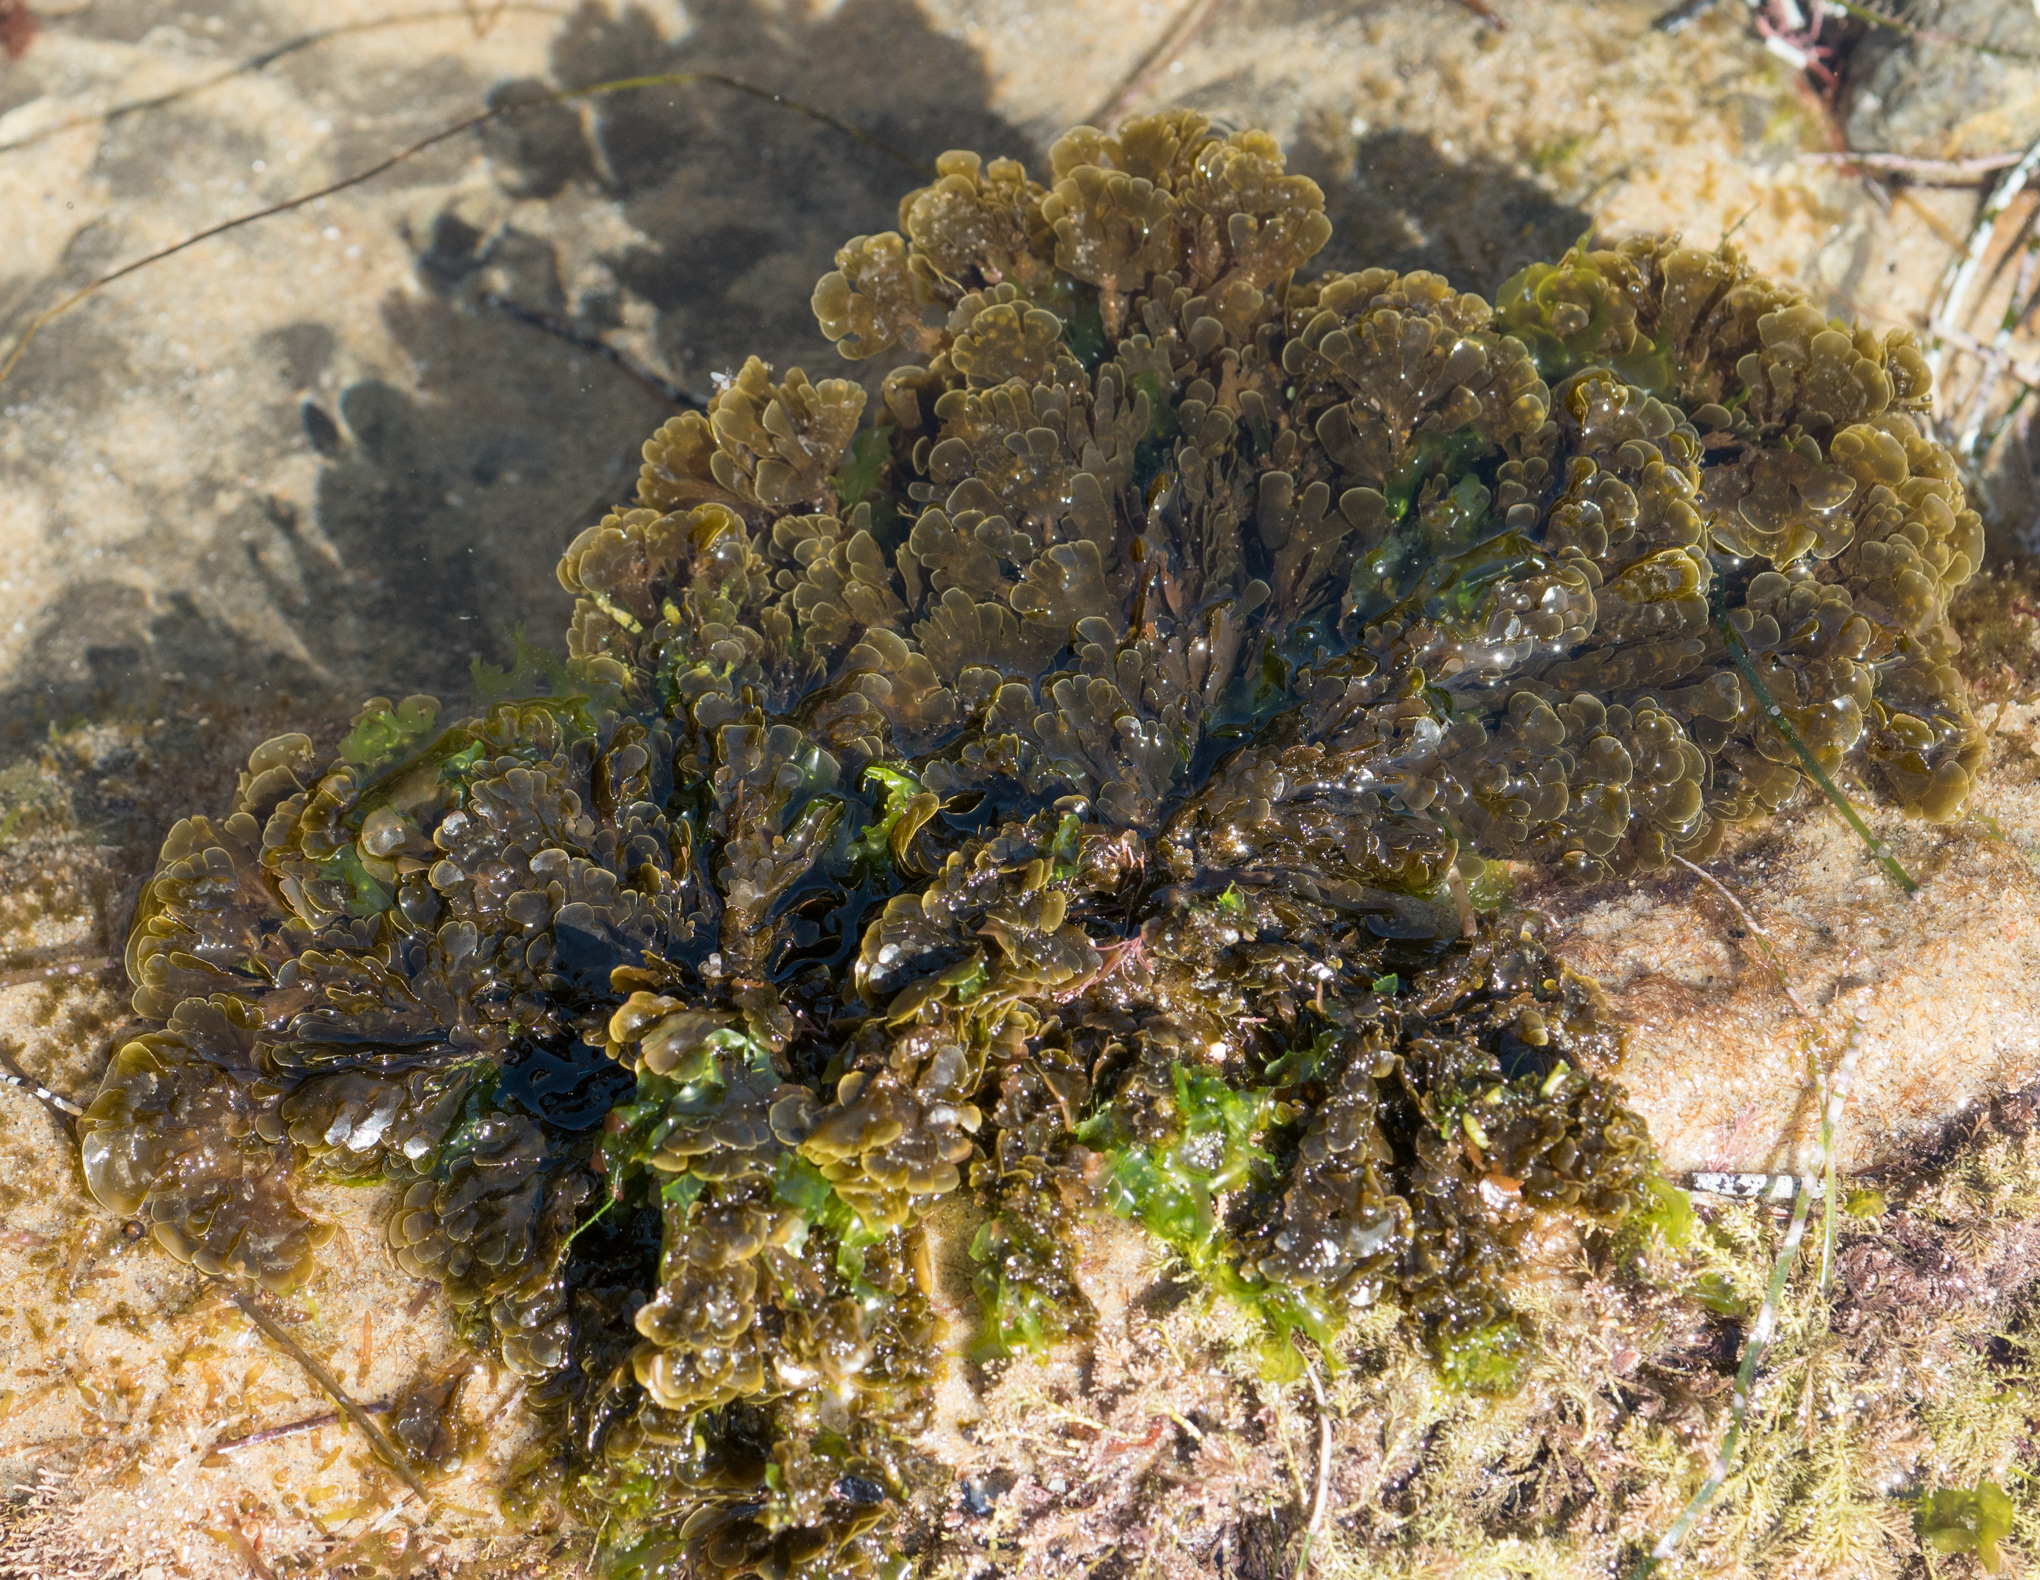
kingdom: Chromista
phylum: Ochrophyta
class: Phaeophyceae
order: Dictyotales
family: Dictyotaceae
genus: Zonaria
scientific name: Zonaria farlowii
